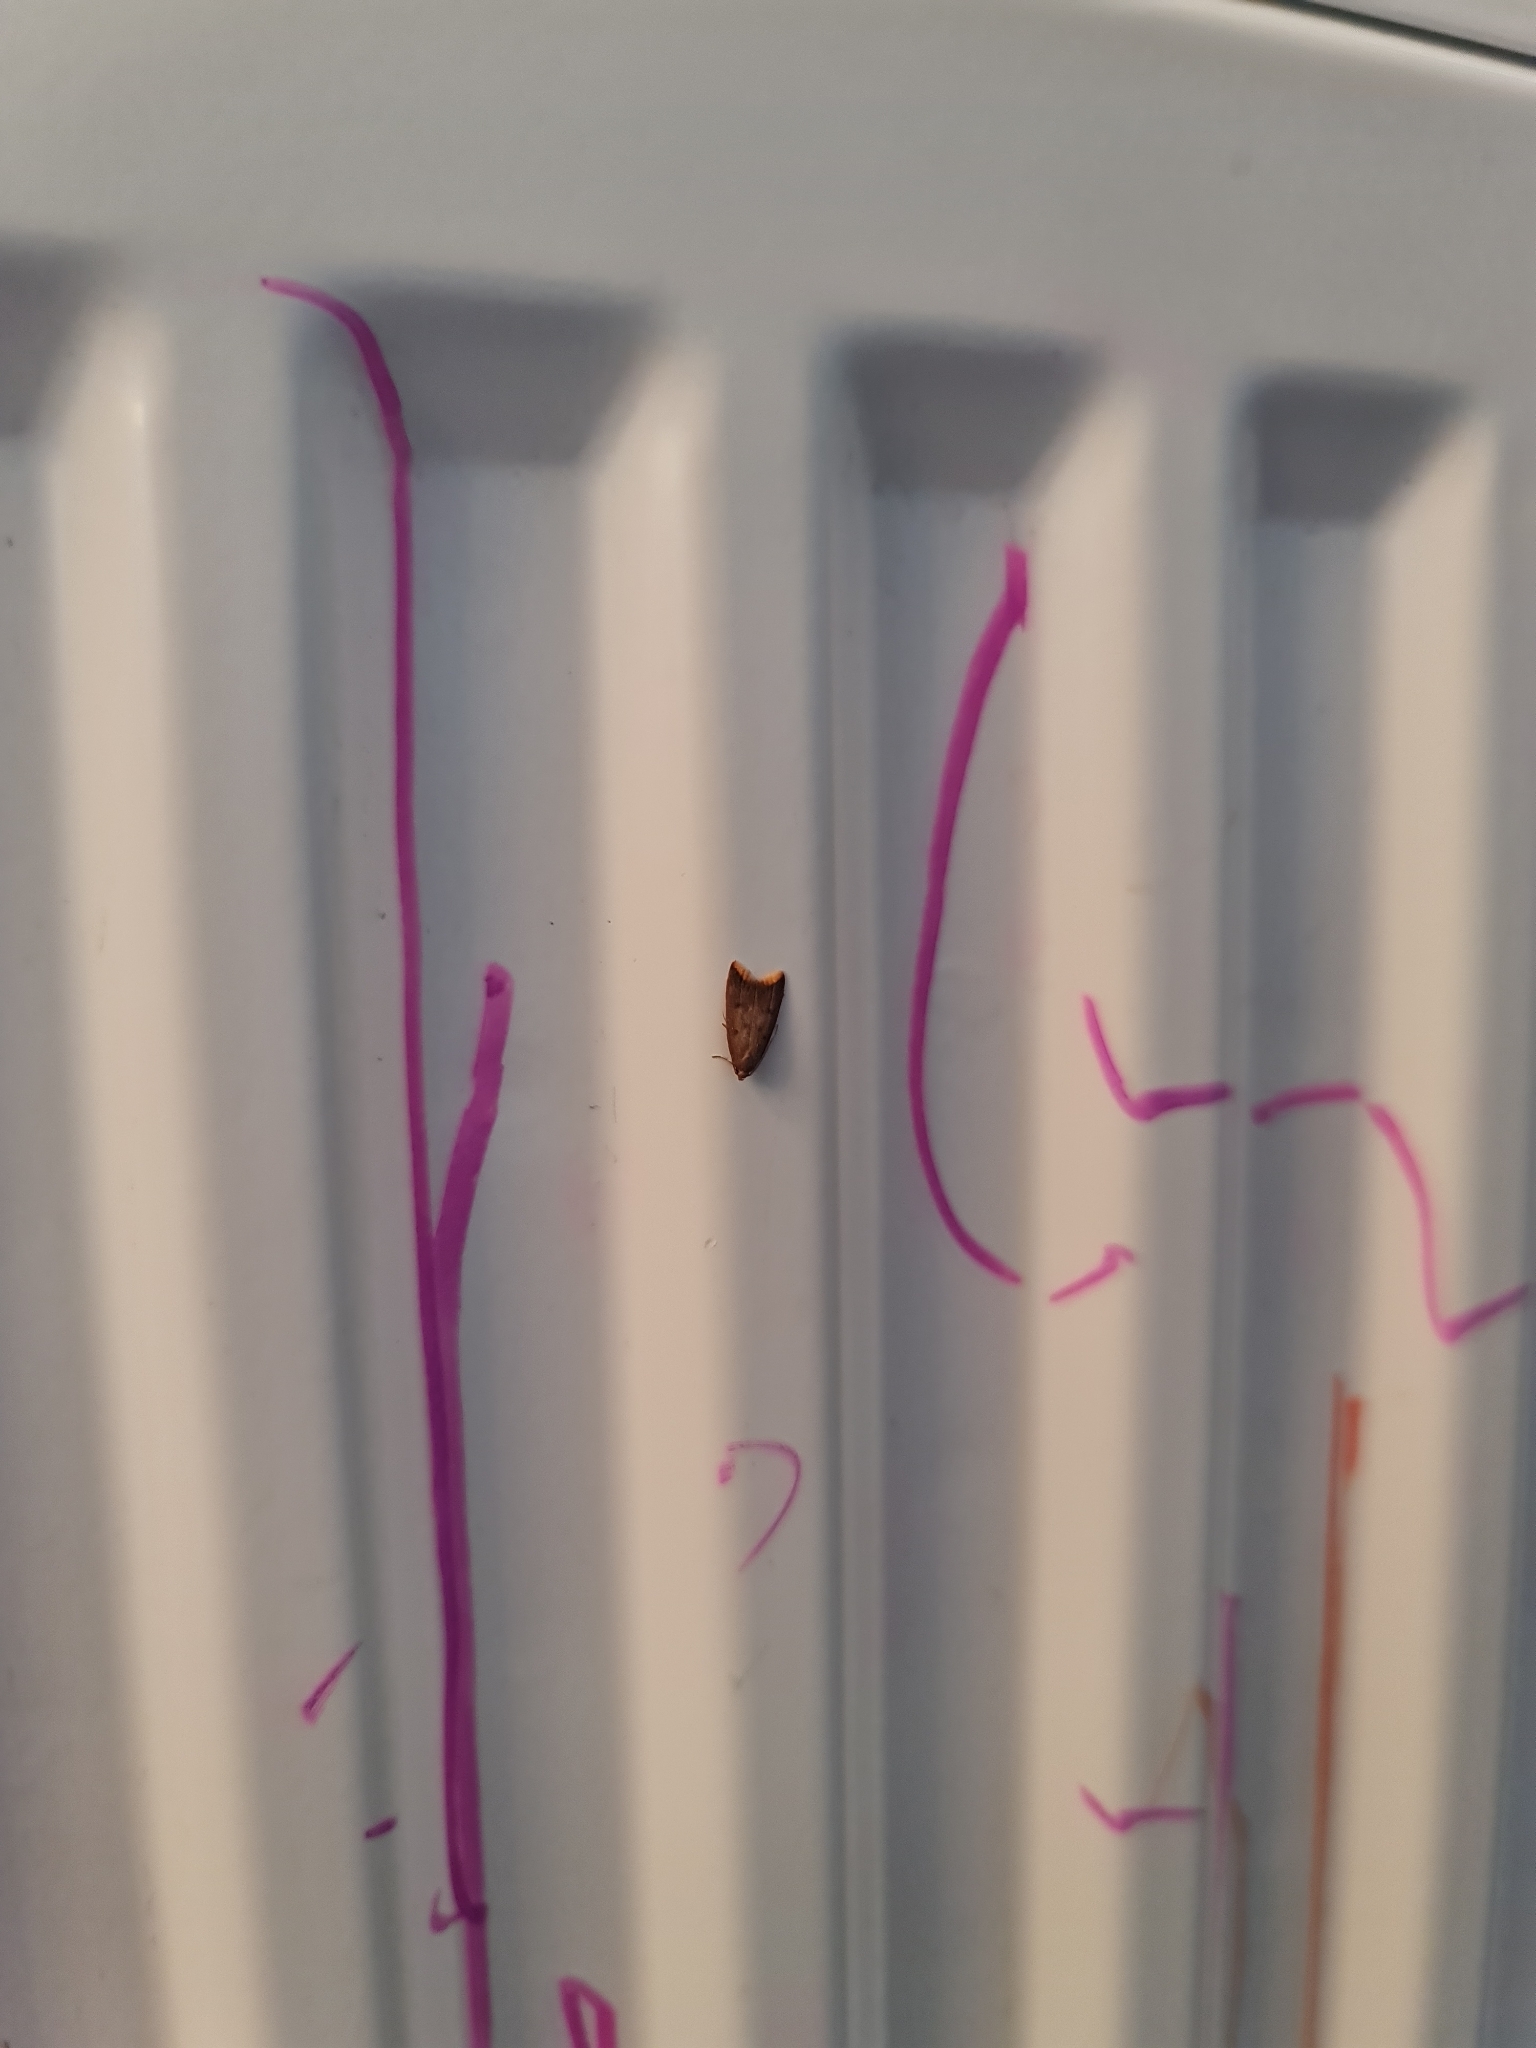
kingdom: Animalia
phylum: Arthropoda
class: Insecta
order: Lepidoptera
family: Oecophoridae
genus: Tachystola
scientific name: Tachystola acroxantha
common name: Ruddy streak
